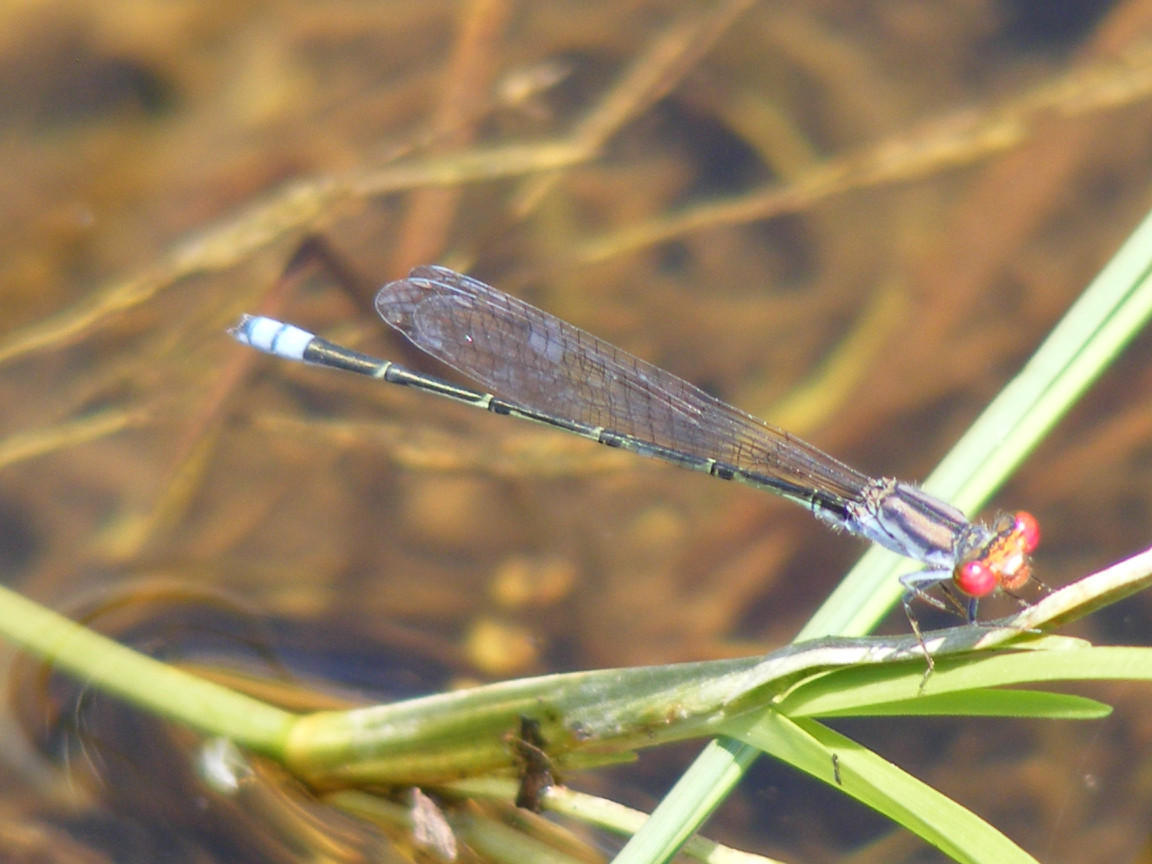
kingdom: Animalia
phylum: Arthropoda
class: Insecta
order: Odonata
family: Coenagrionidae
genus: Pseudagrion
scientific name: Pseudagrion sublacteum
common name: Cherry-eye sprite
